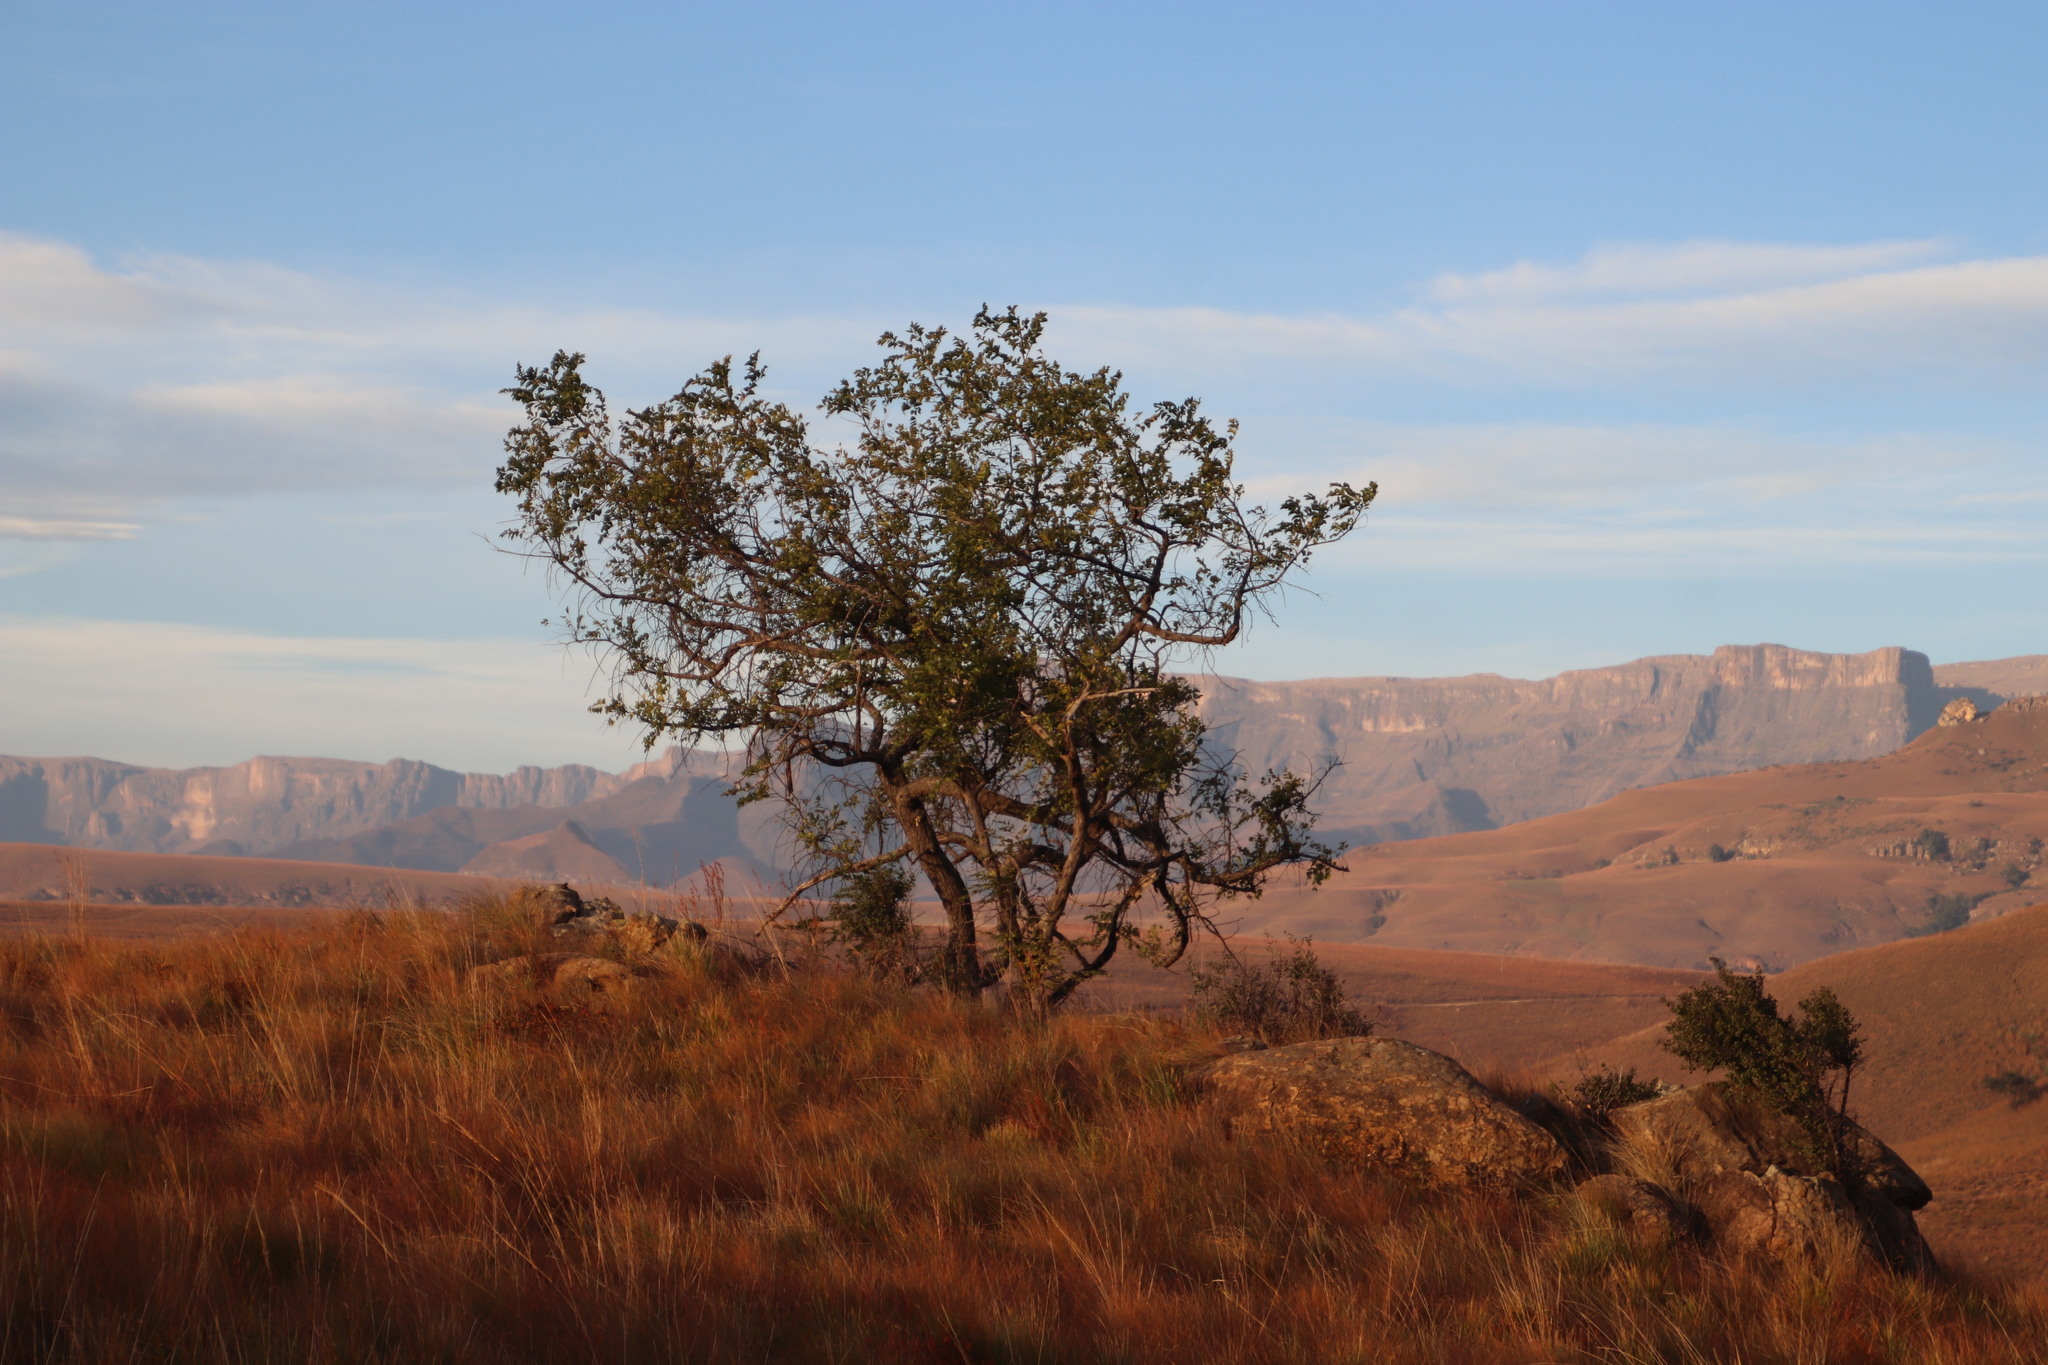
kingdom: Plantae
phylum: Tracheophyta
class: Magnoliopsida
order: Rosales
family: Rhamnaceae
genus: Ziziphus
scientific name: Ziziphus mucronata
